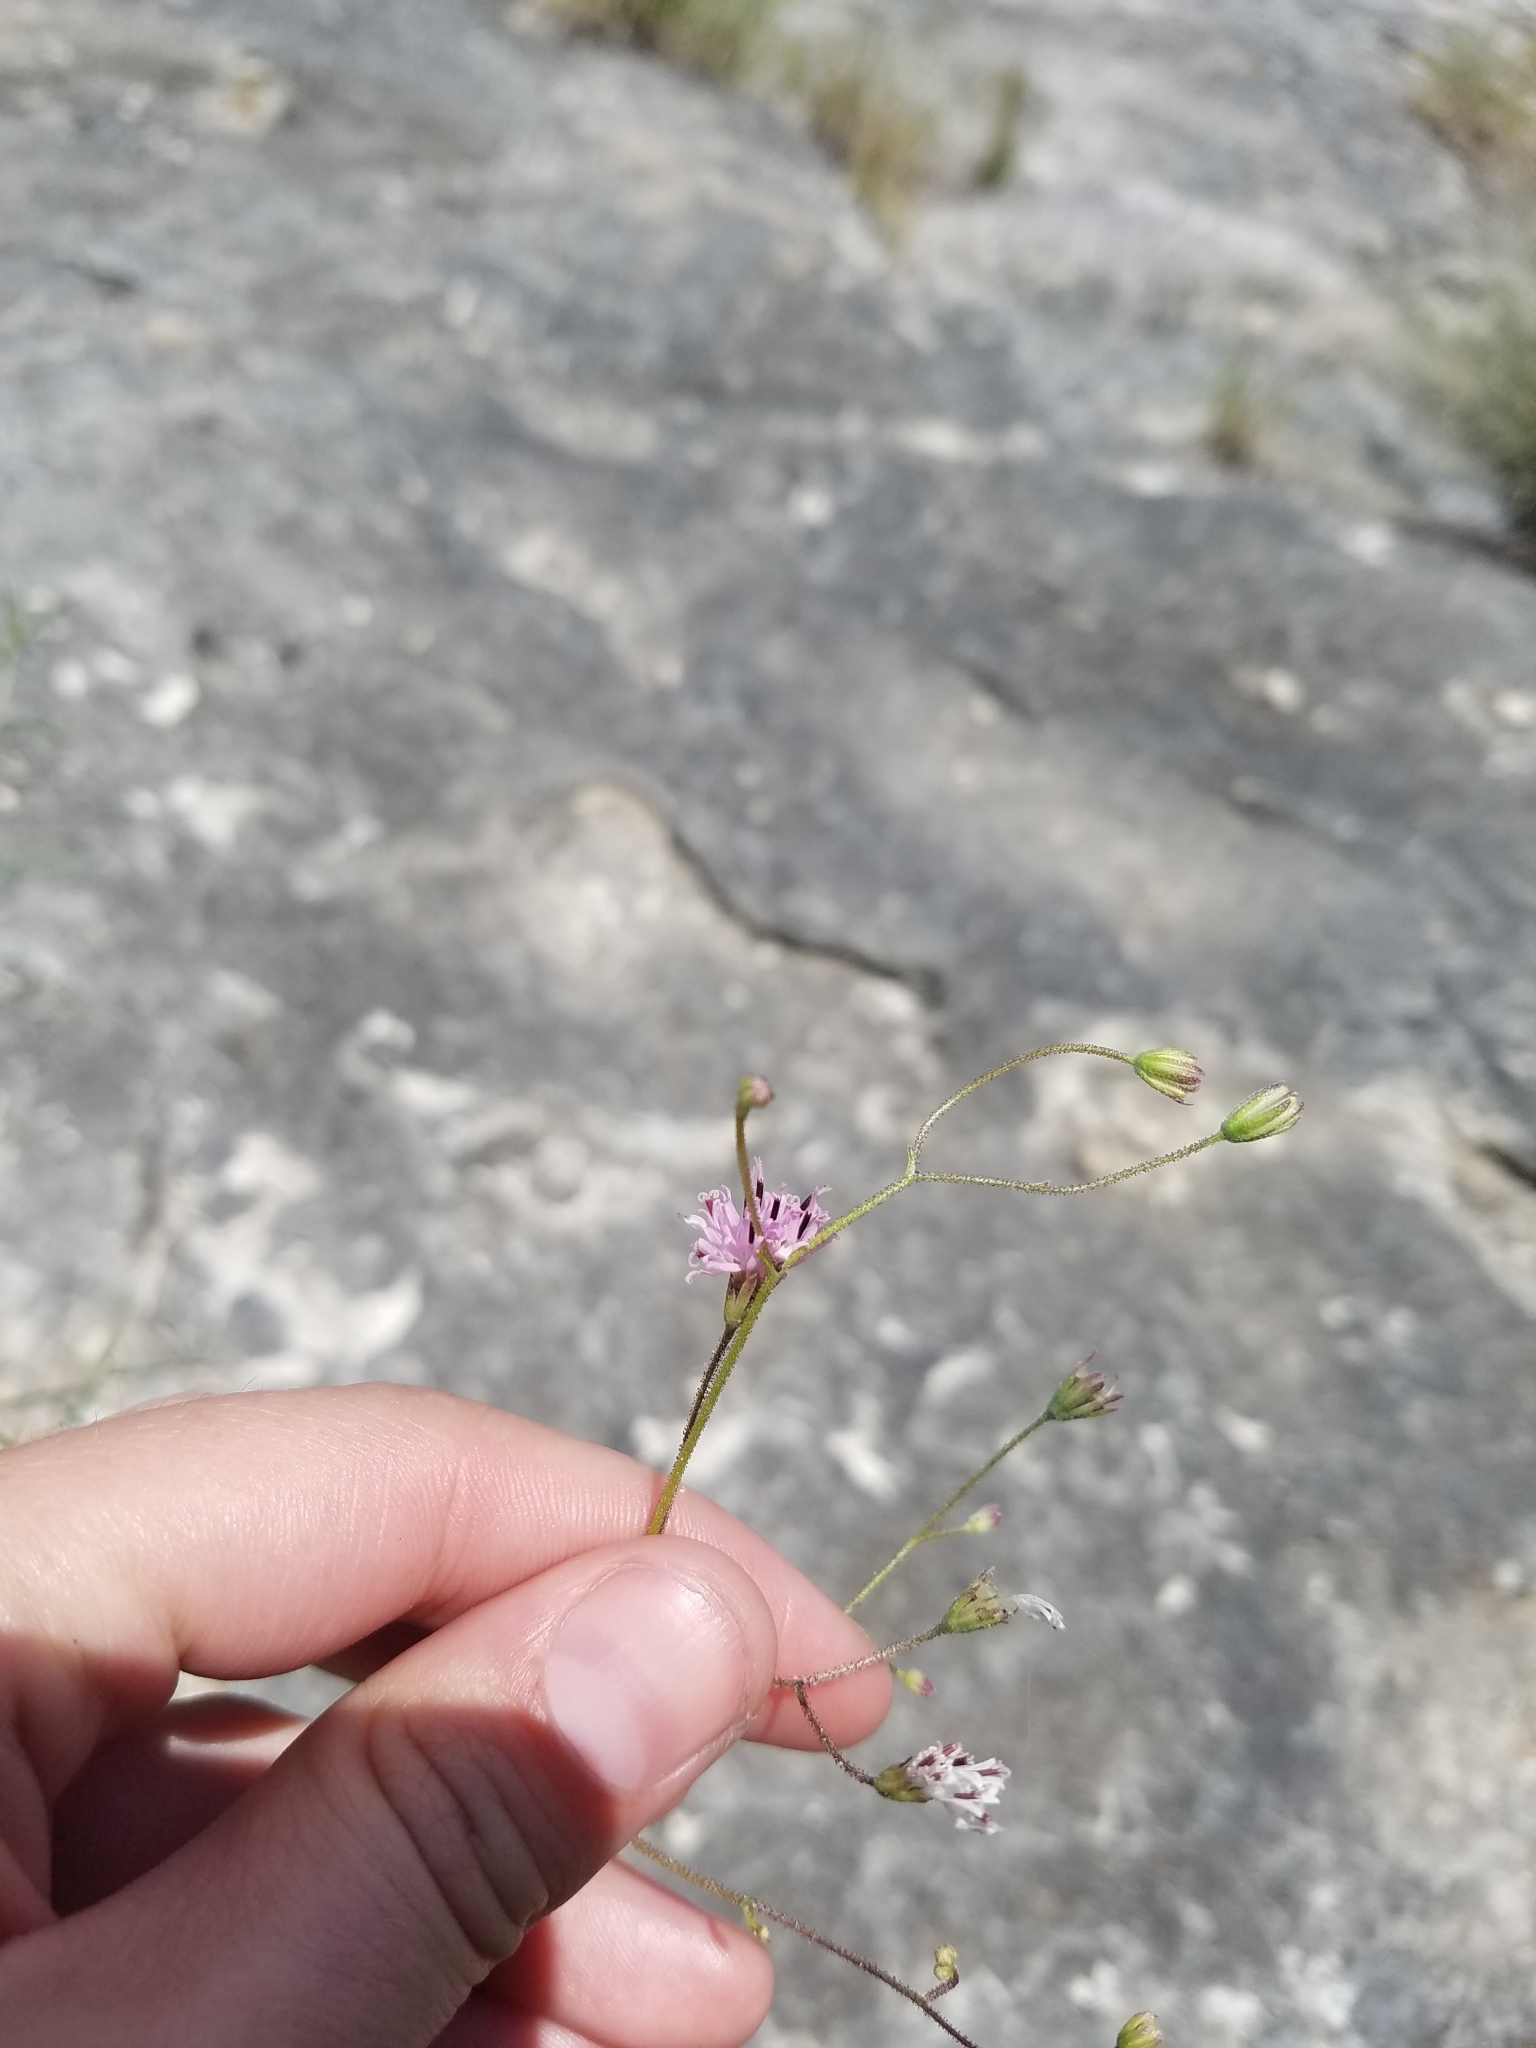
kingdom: Plantae
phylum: Tracheophyta
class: Magnoliopsida
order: Asterales
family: Asteraceae
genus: Palafoxia
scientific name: Palafoxia callosa
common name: Small palafox
